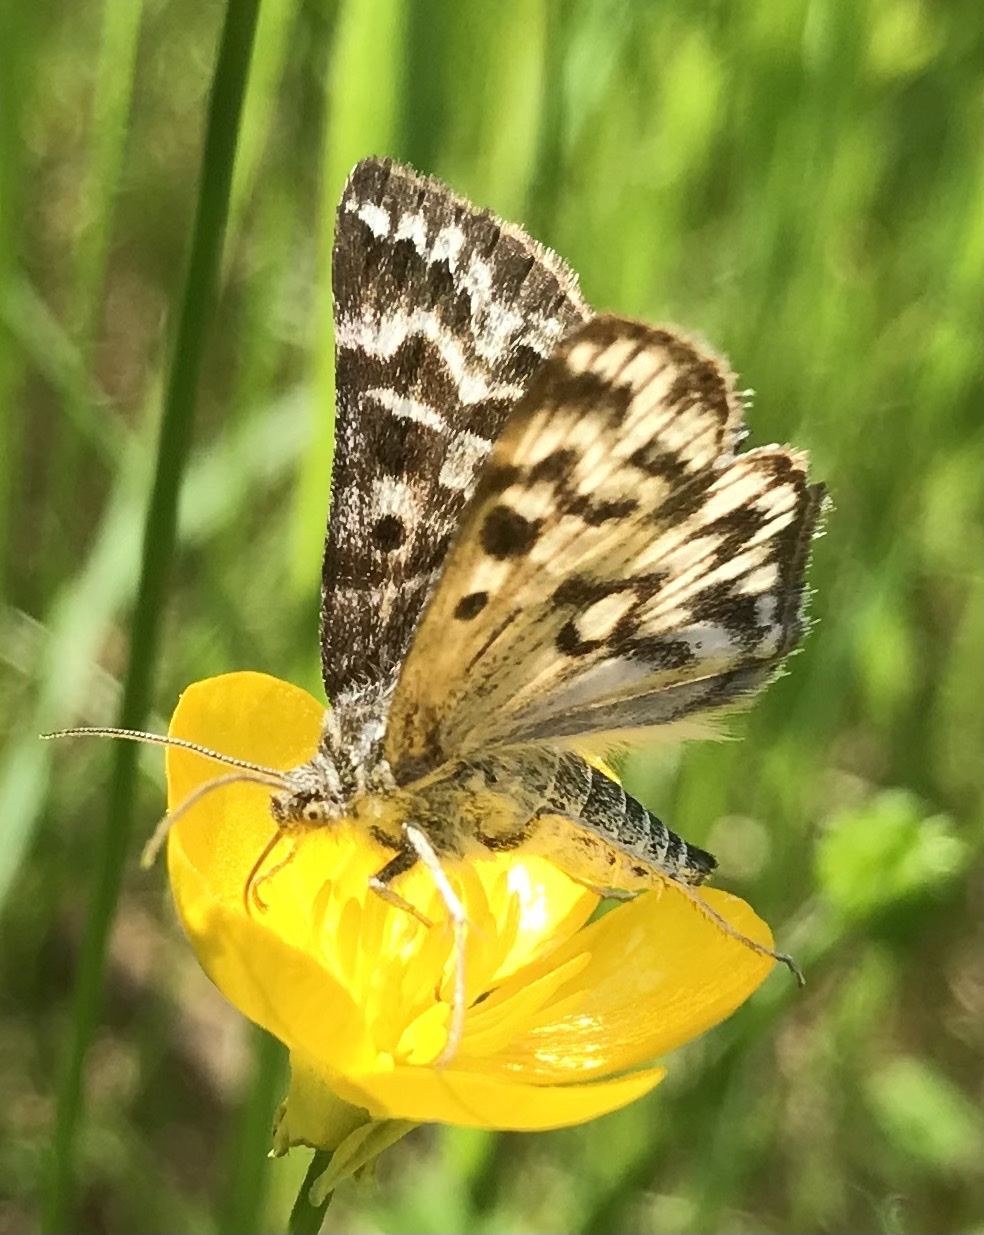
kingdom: Animalia
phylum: Arthropoda
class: Insecta
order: Lepidoptera
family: Erebidae
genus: Callistege
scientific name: Callistege mi
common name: Mother shipton
